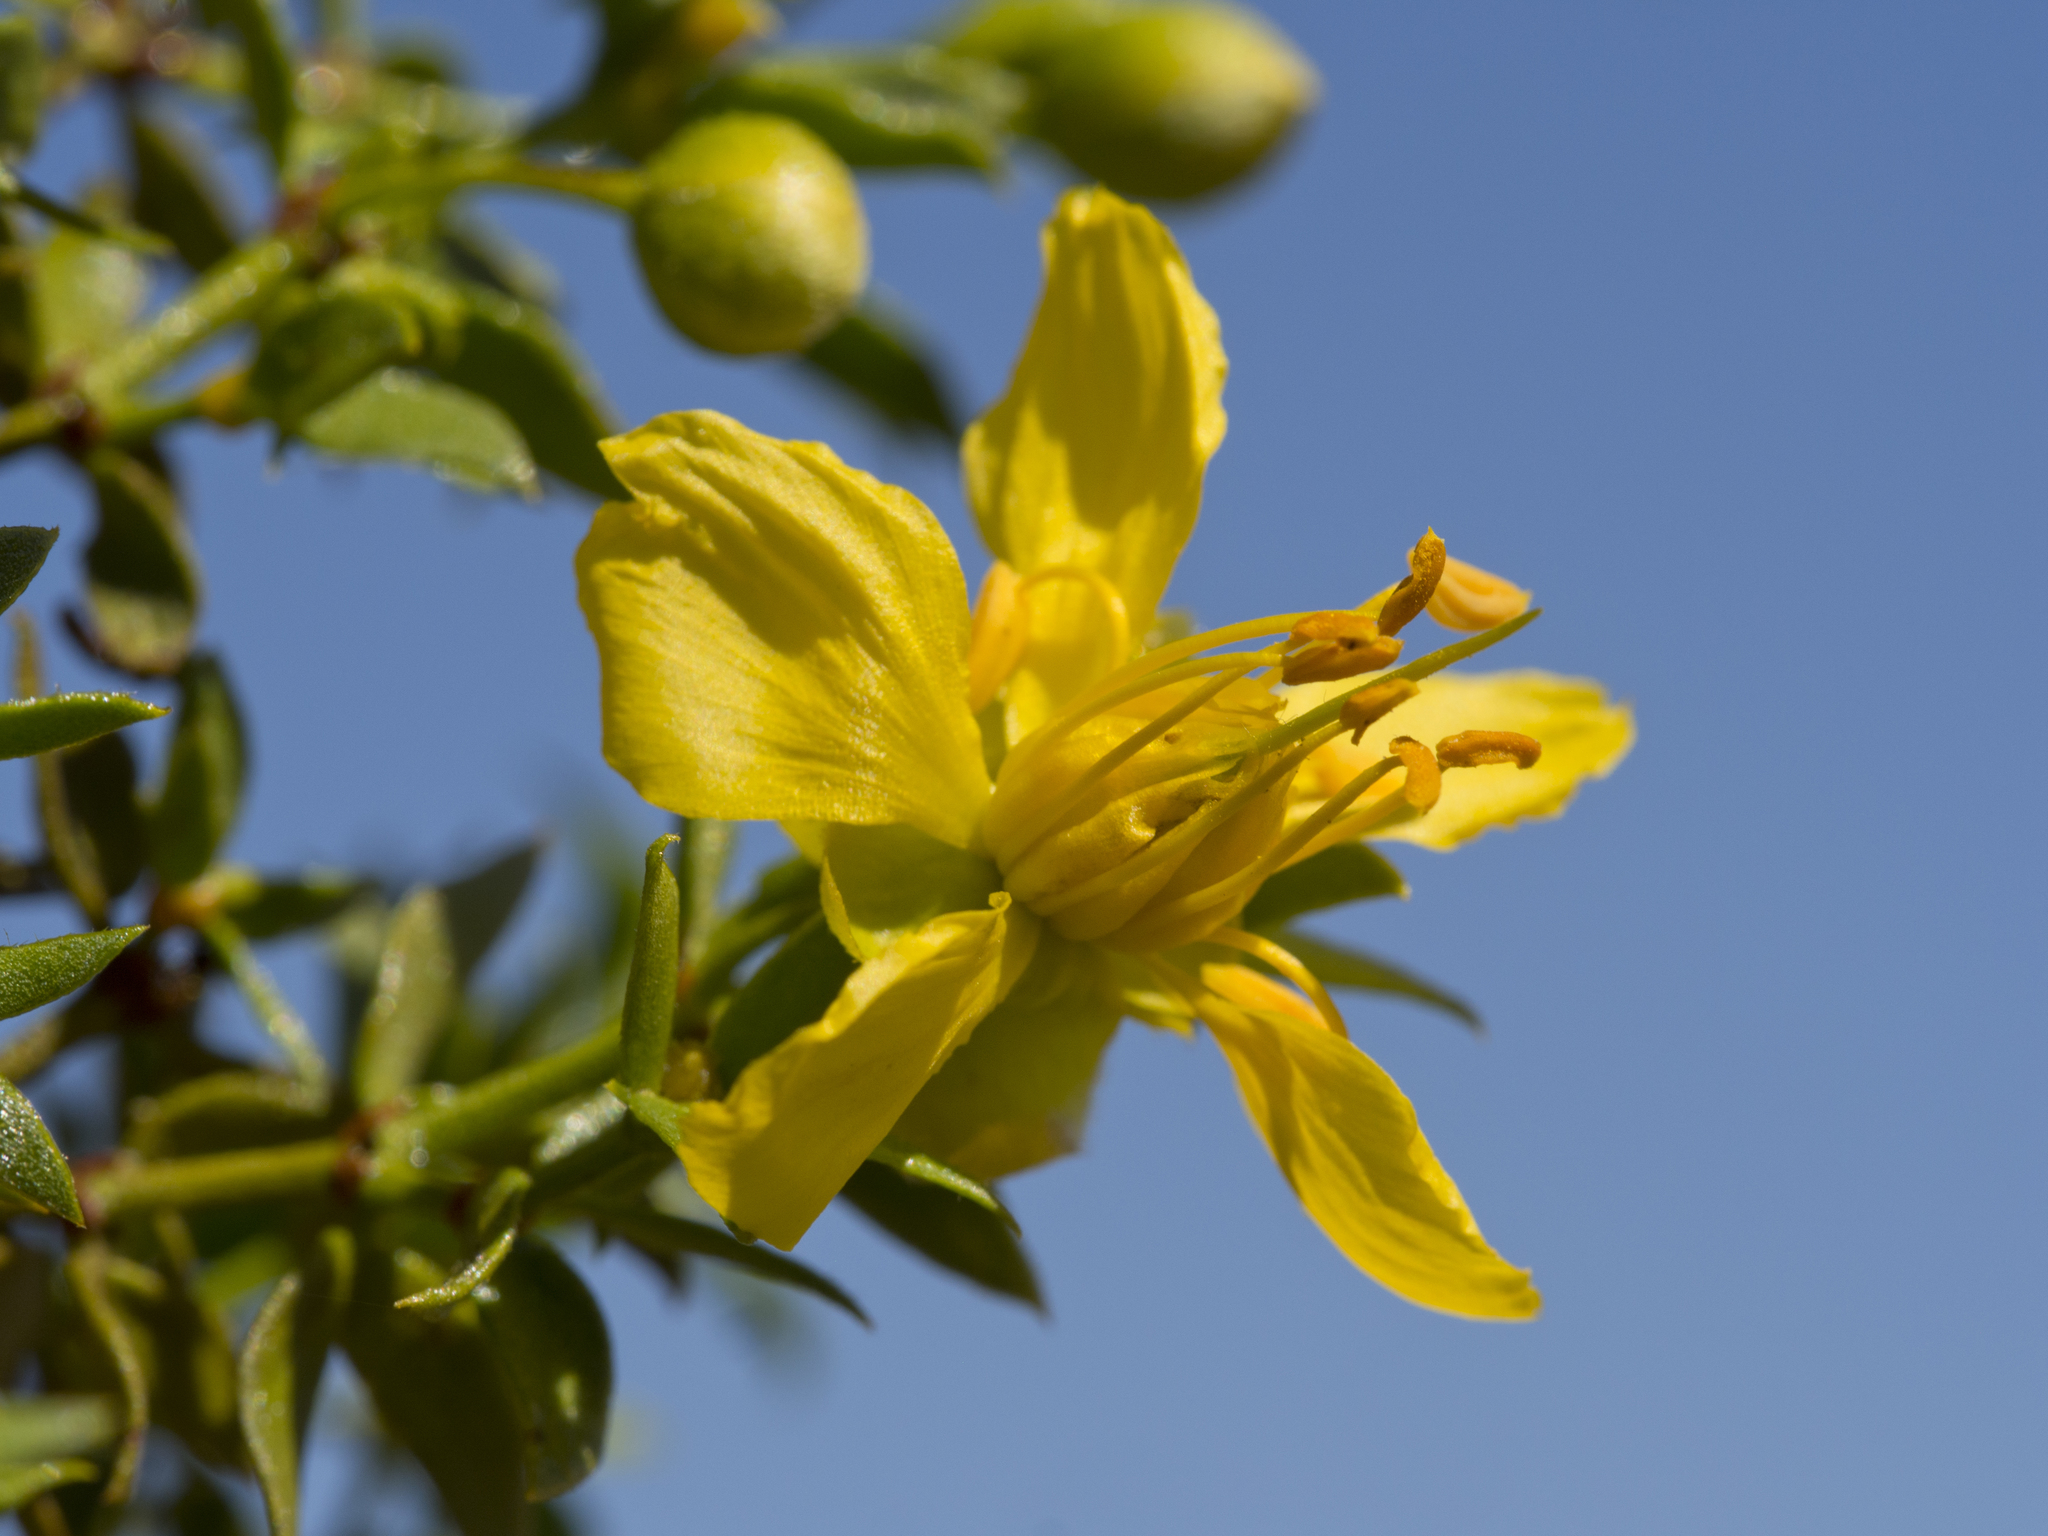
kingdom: Plantae
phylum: Tracheophyta
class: Magnoliopsida
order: Zygophyllales
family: Zygophyllaceae
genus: Larrea
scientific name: Larrea tridentata
